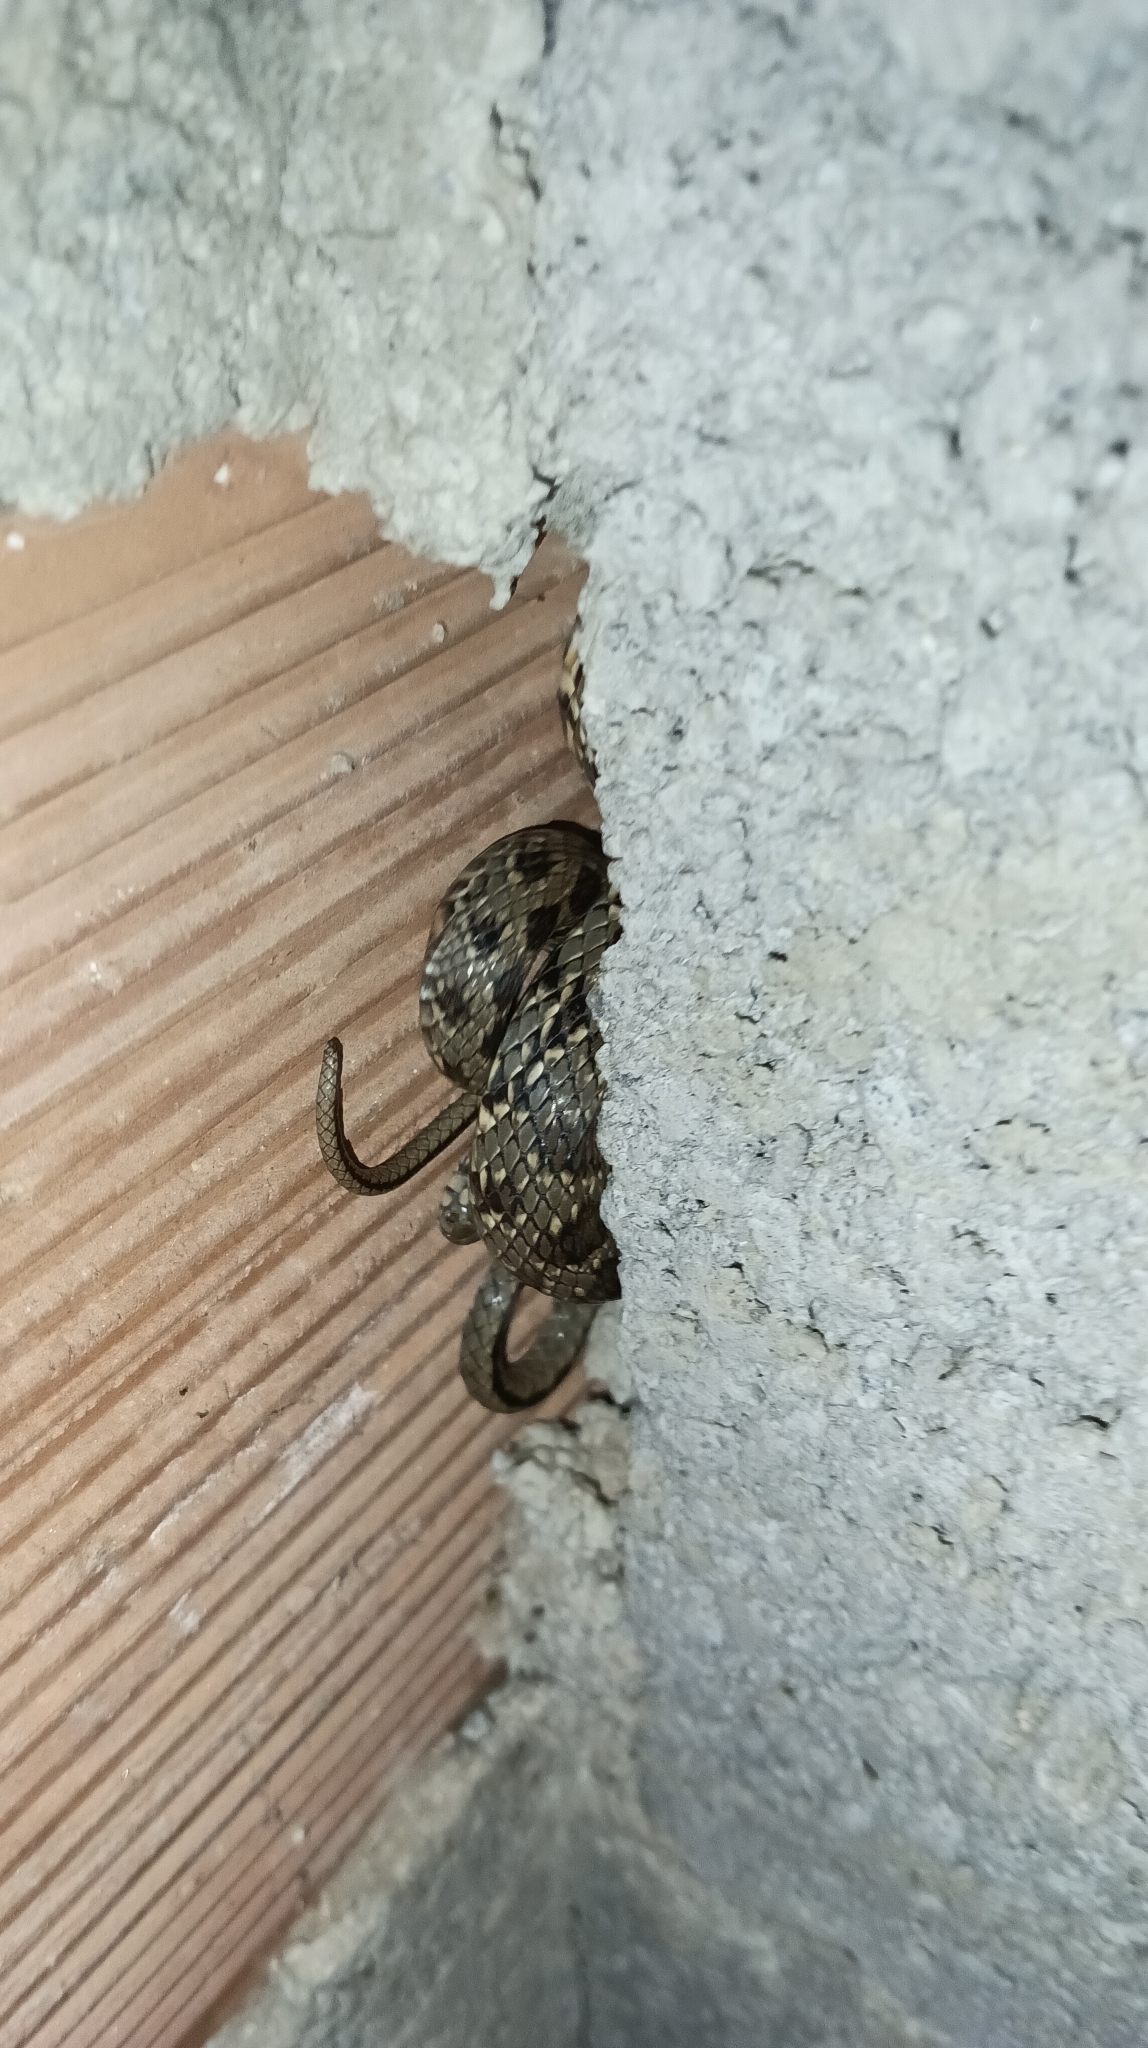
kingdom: Animalia
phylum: Chordata
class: Squamata
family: Colubridae
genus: Hemorrhois
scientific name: Hemorrhois hippocrepis
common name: Horseshoe whip snake
